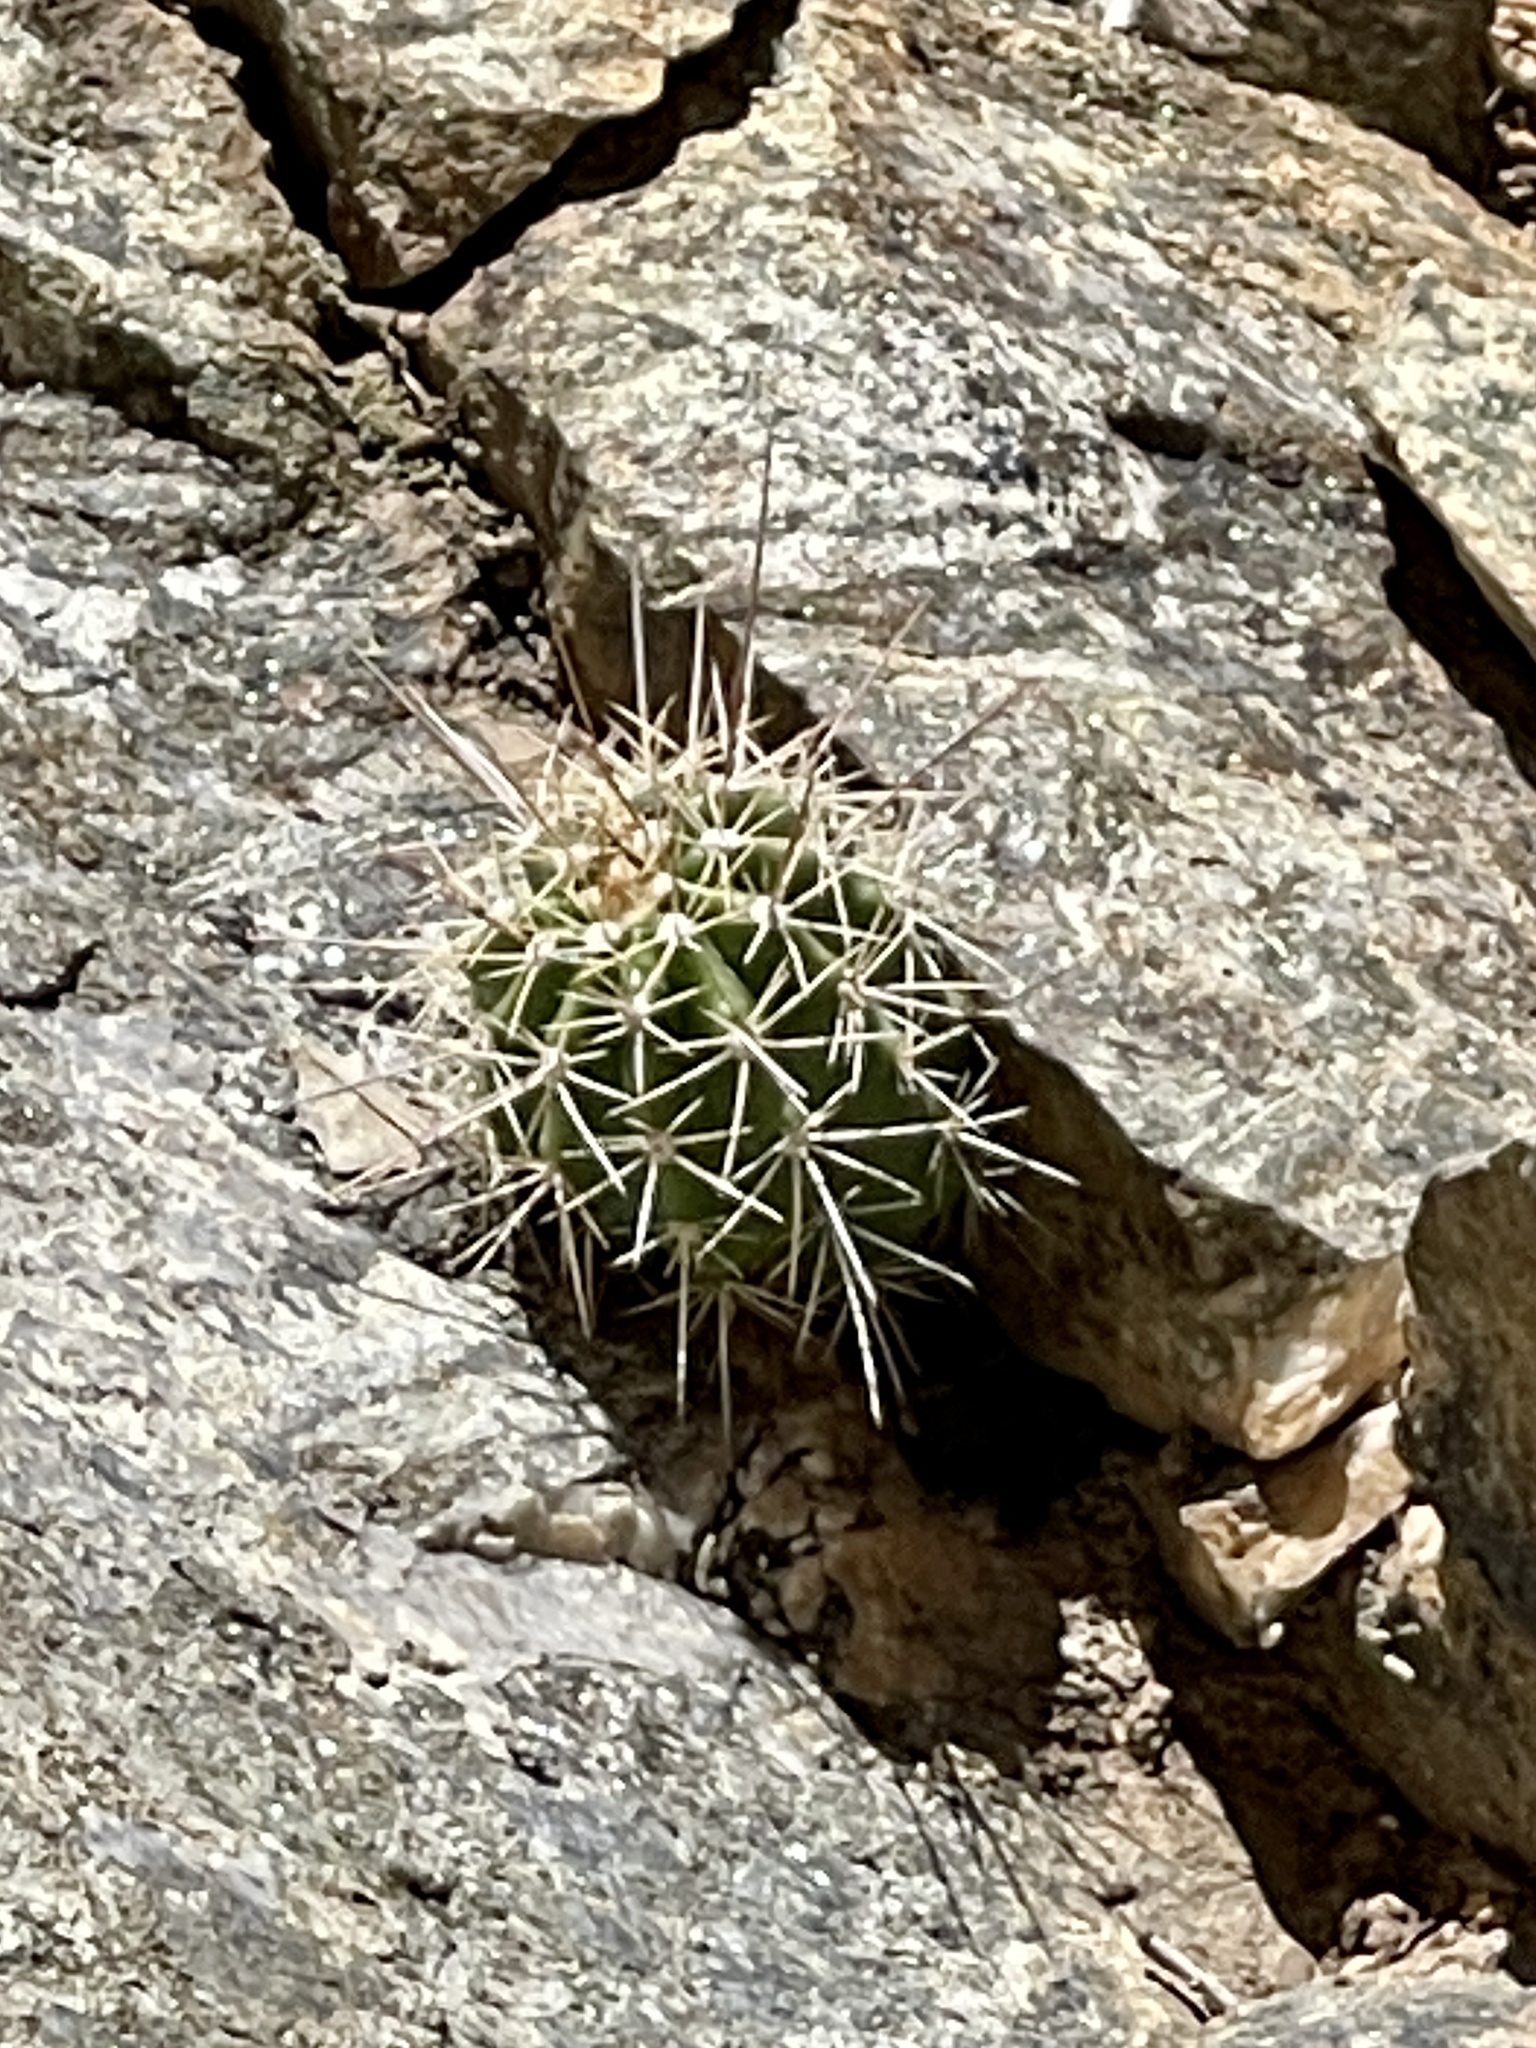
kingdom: Plantae
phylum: Tracheophyta
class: Magnoliopsida
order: Caryophyllales
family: Cactaceae
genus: Echinocereus
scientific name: Echinocereus bakeri
